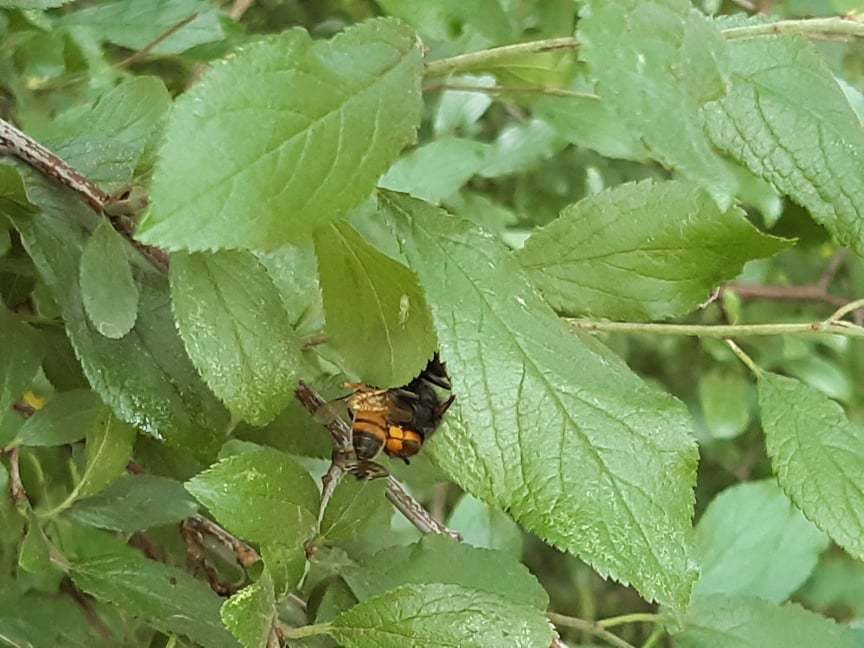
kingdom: Animalia
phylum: Arthropoda
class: Insecta
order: Hymenoptera
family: Vespidae
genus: Vespa
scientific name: Vespa velutina
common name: Asian hornet
